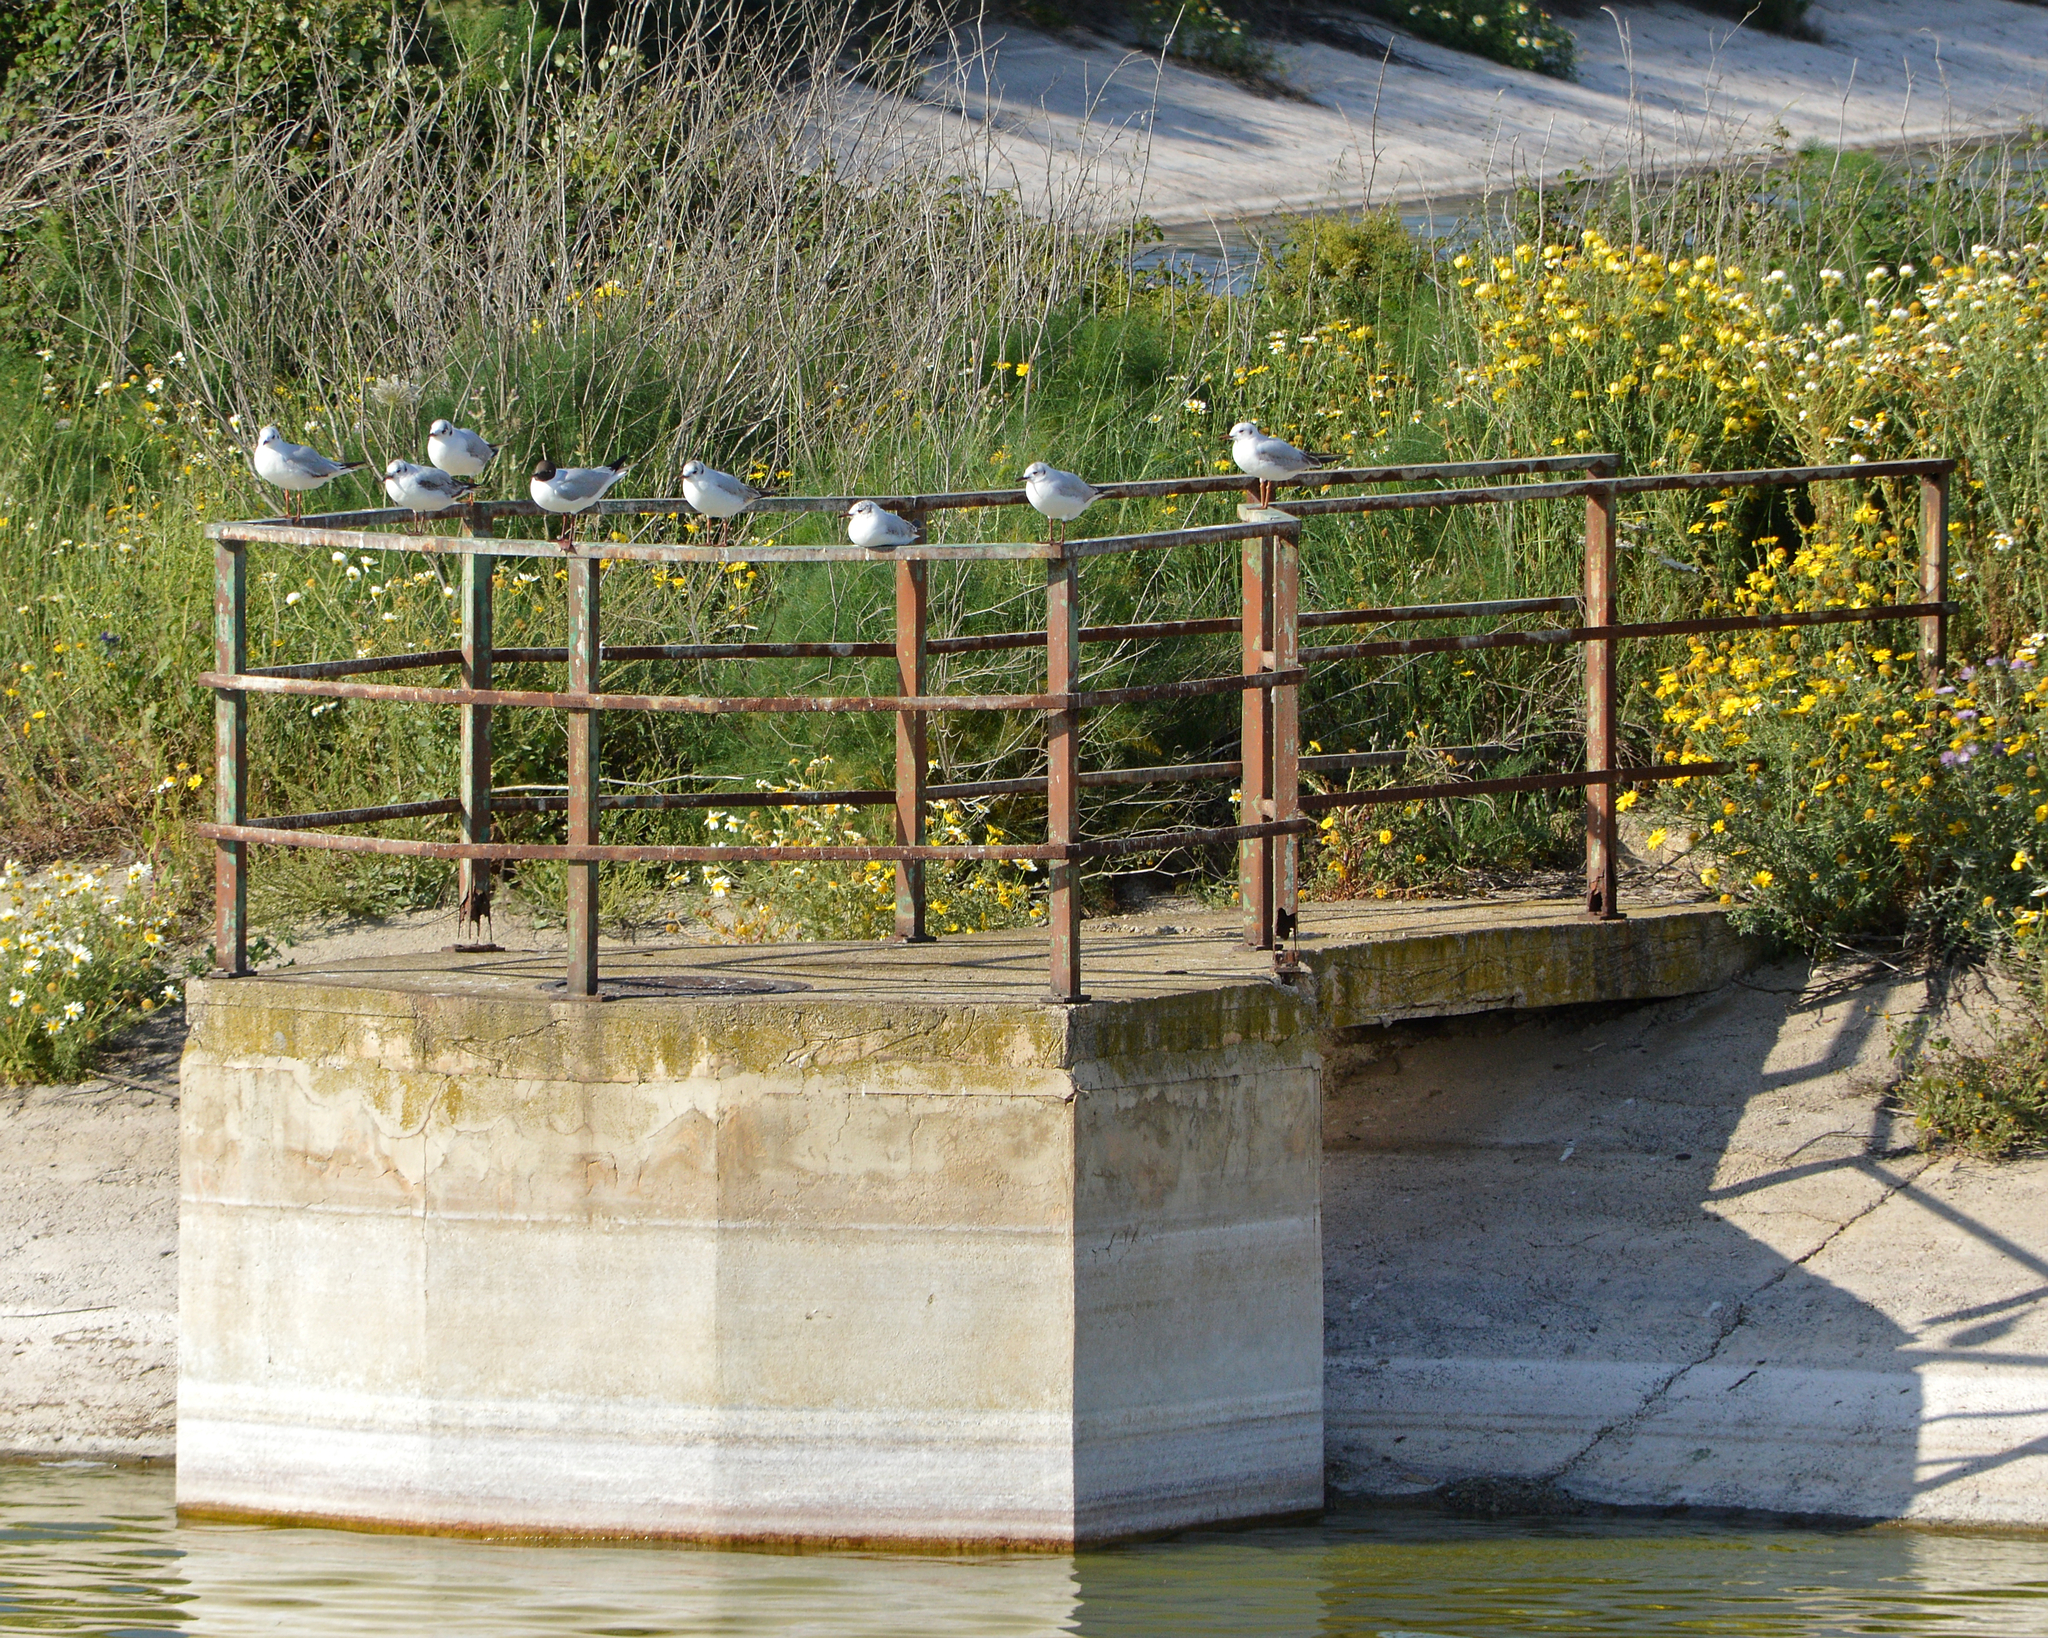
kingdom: Animalia
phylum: Chordata
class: Aves
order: Charadriiformes
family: Laridae
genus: Chroicocephalus
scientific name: Chroicocephalus ridibundus
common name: Black-headed gull
